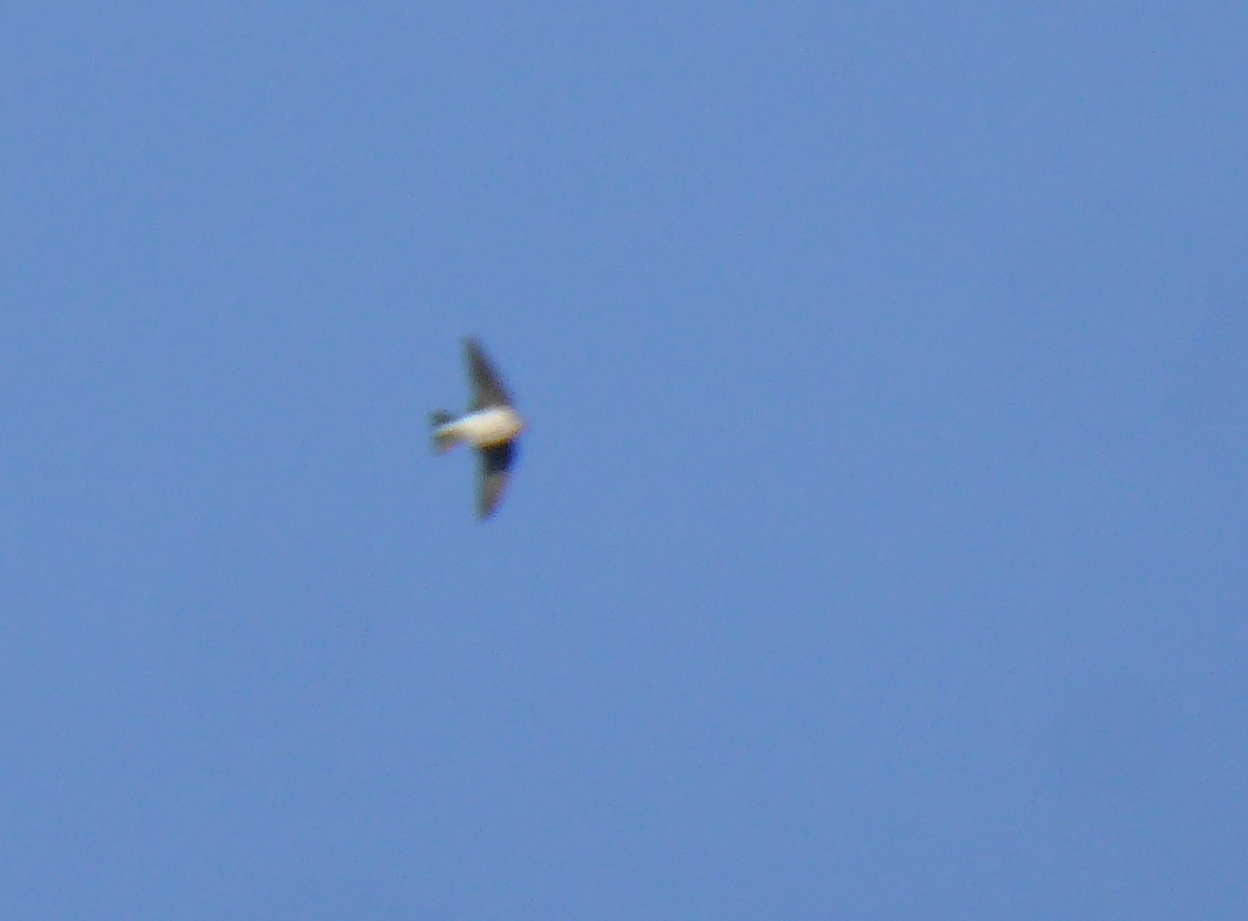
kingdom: Animalia
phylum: Chordata
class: Aves
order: Passeriformes
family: Hirundinidae
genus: Tachycineta
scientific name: Tachycineta bicolor
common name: Tree swallow
